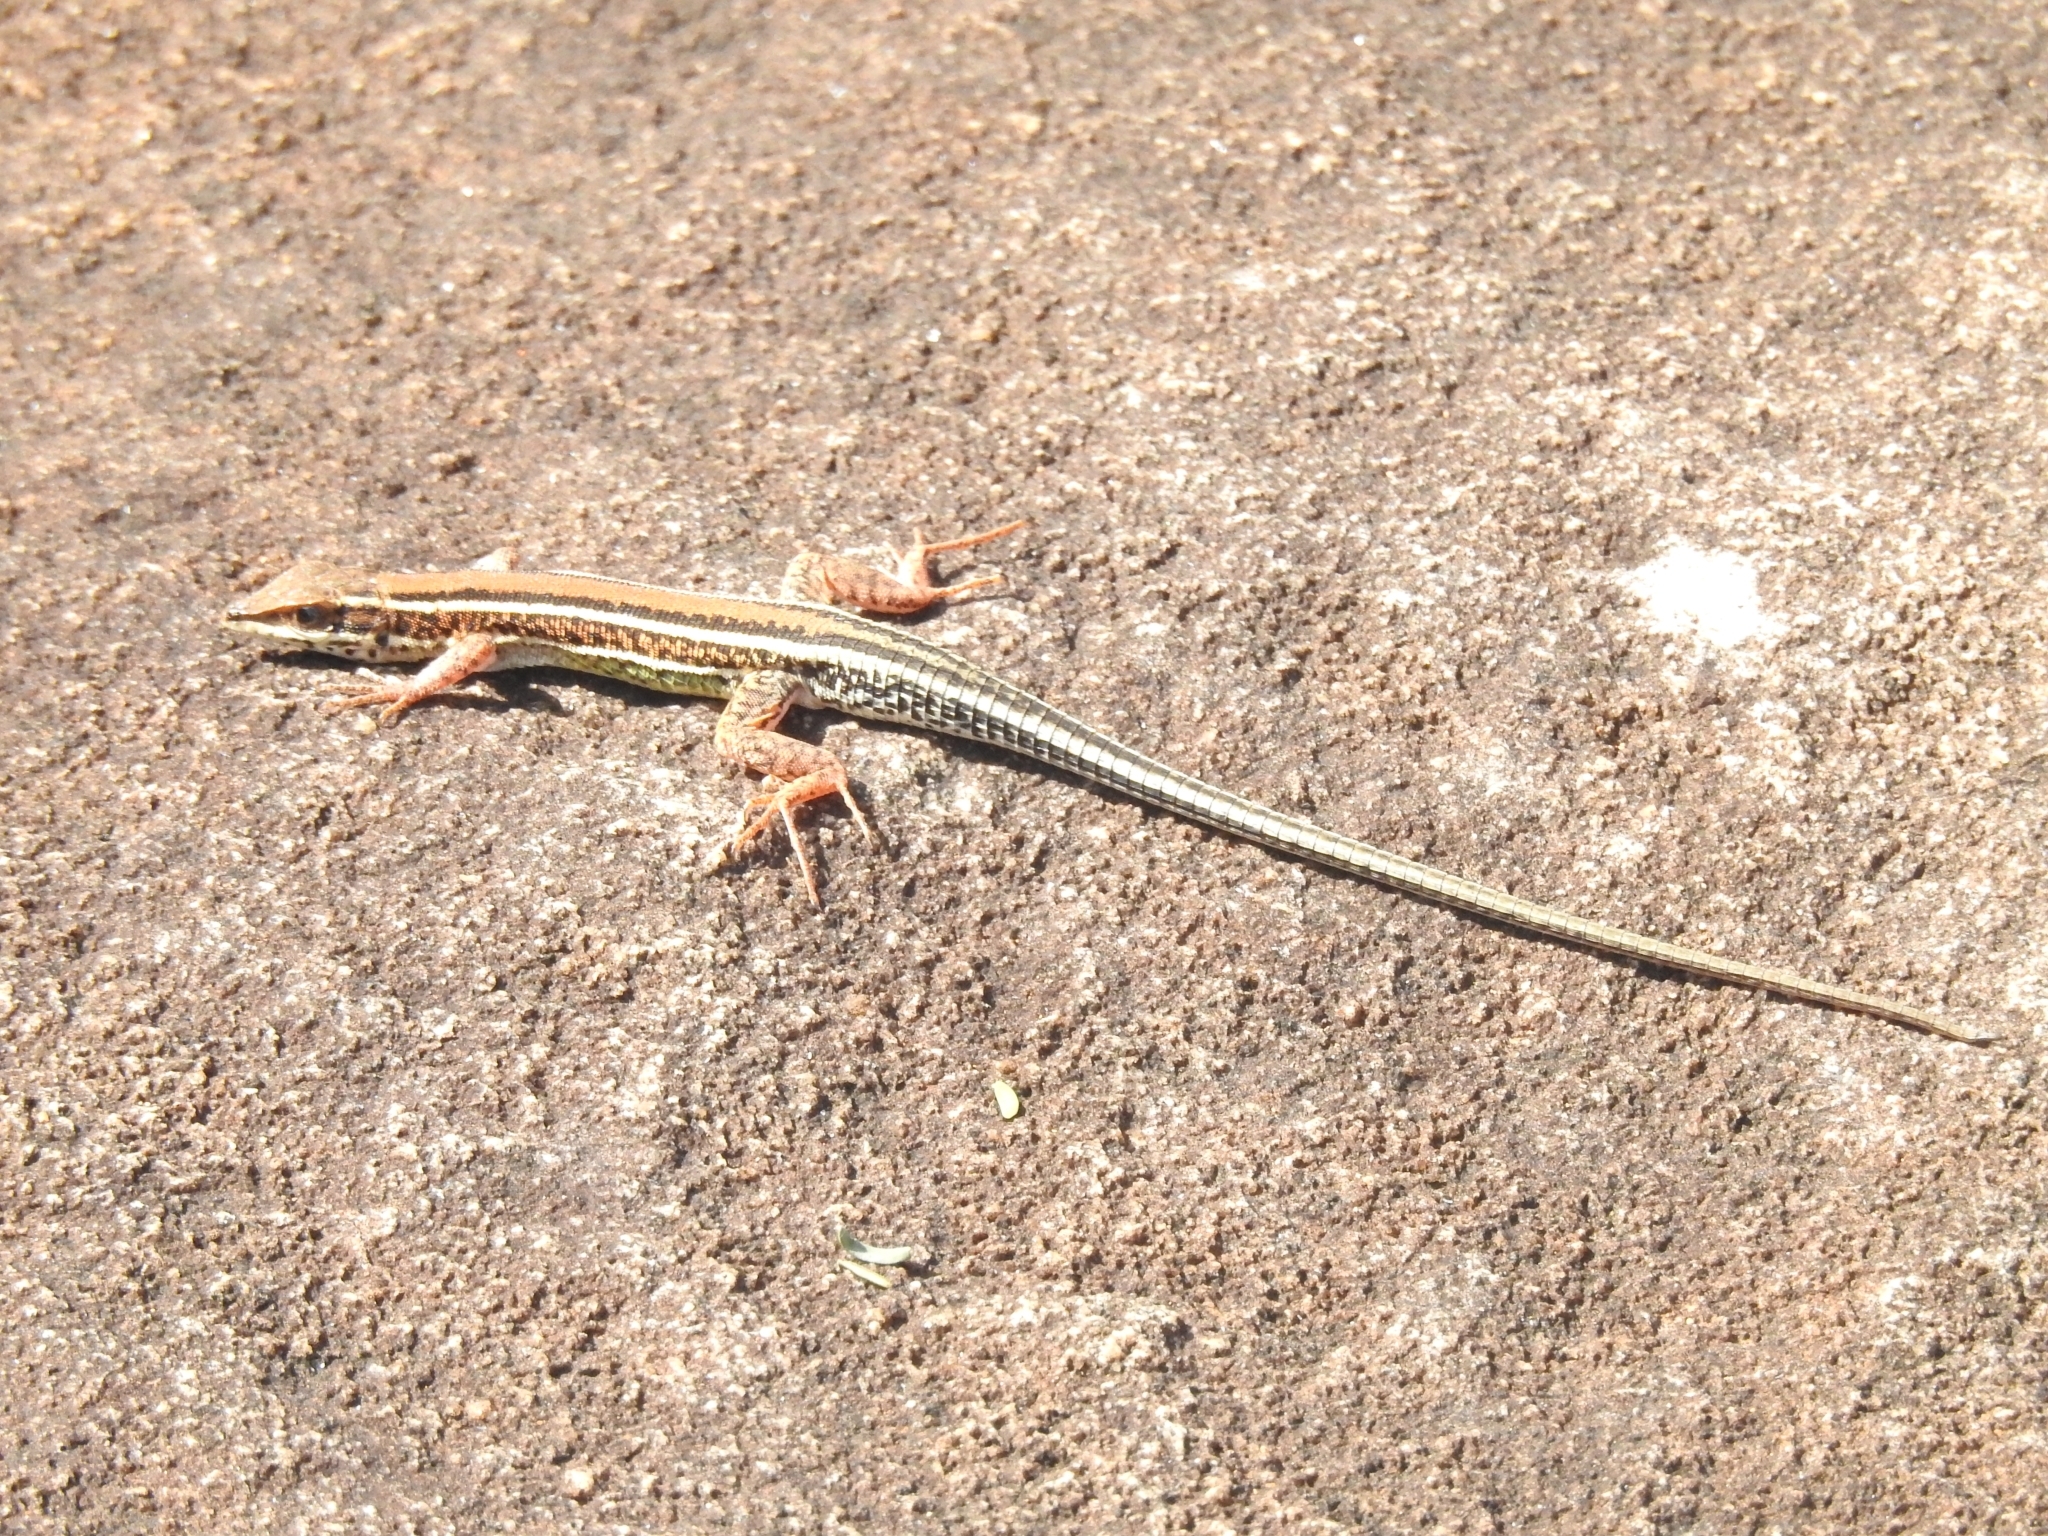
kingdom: Animalia
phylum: Chordata
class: Squamata
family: Lacertidae
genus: Ophisops
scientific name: Ophisops leschenaultii
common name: Leschenault's cabrita
